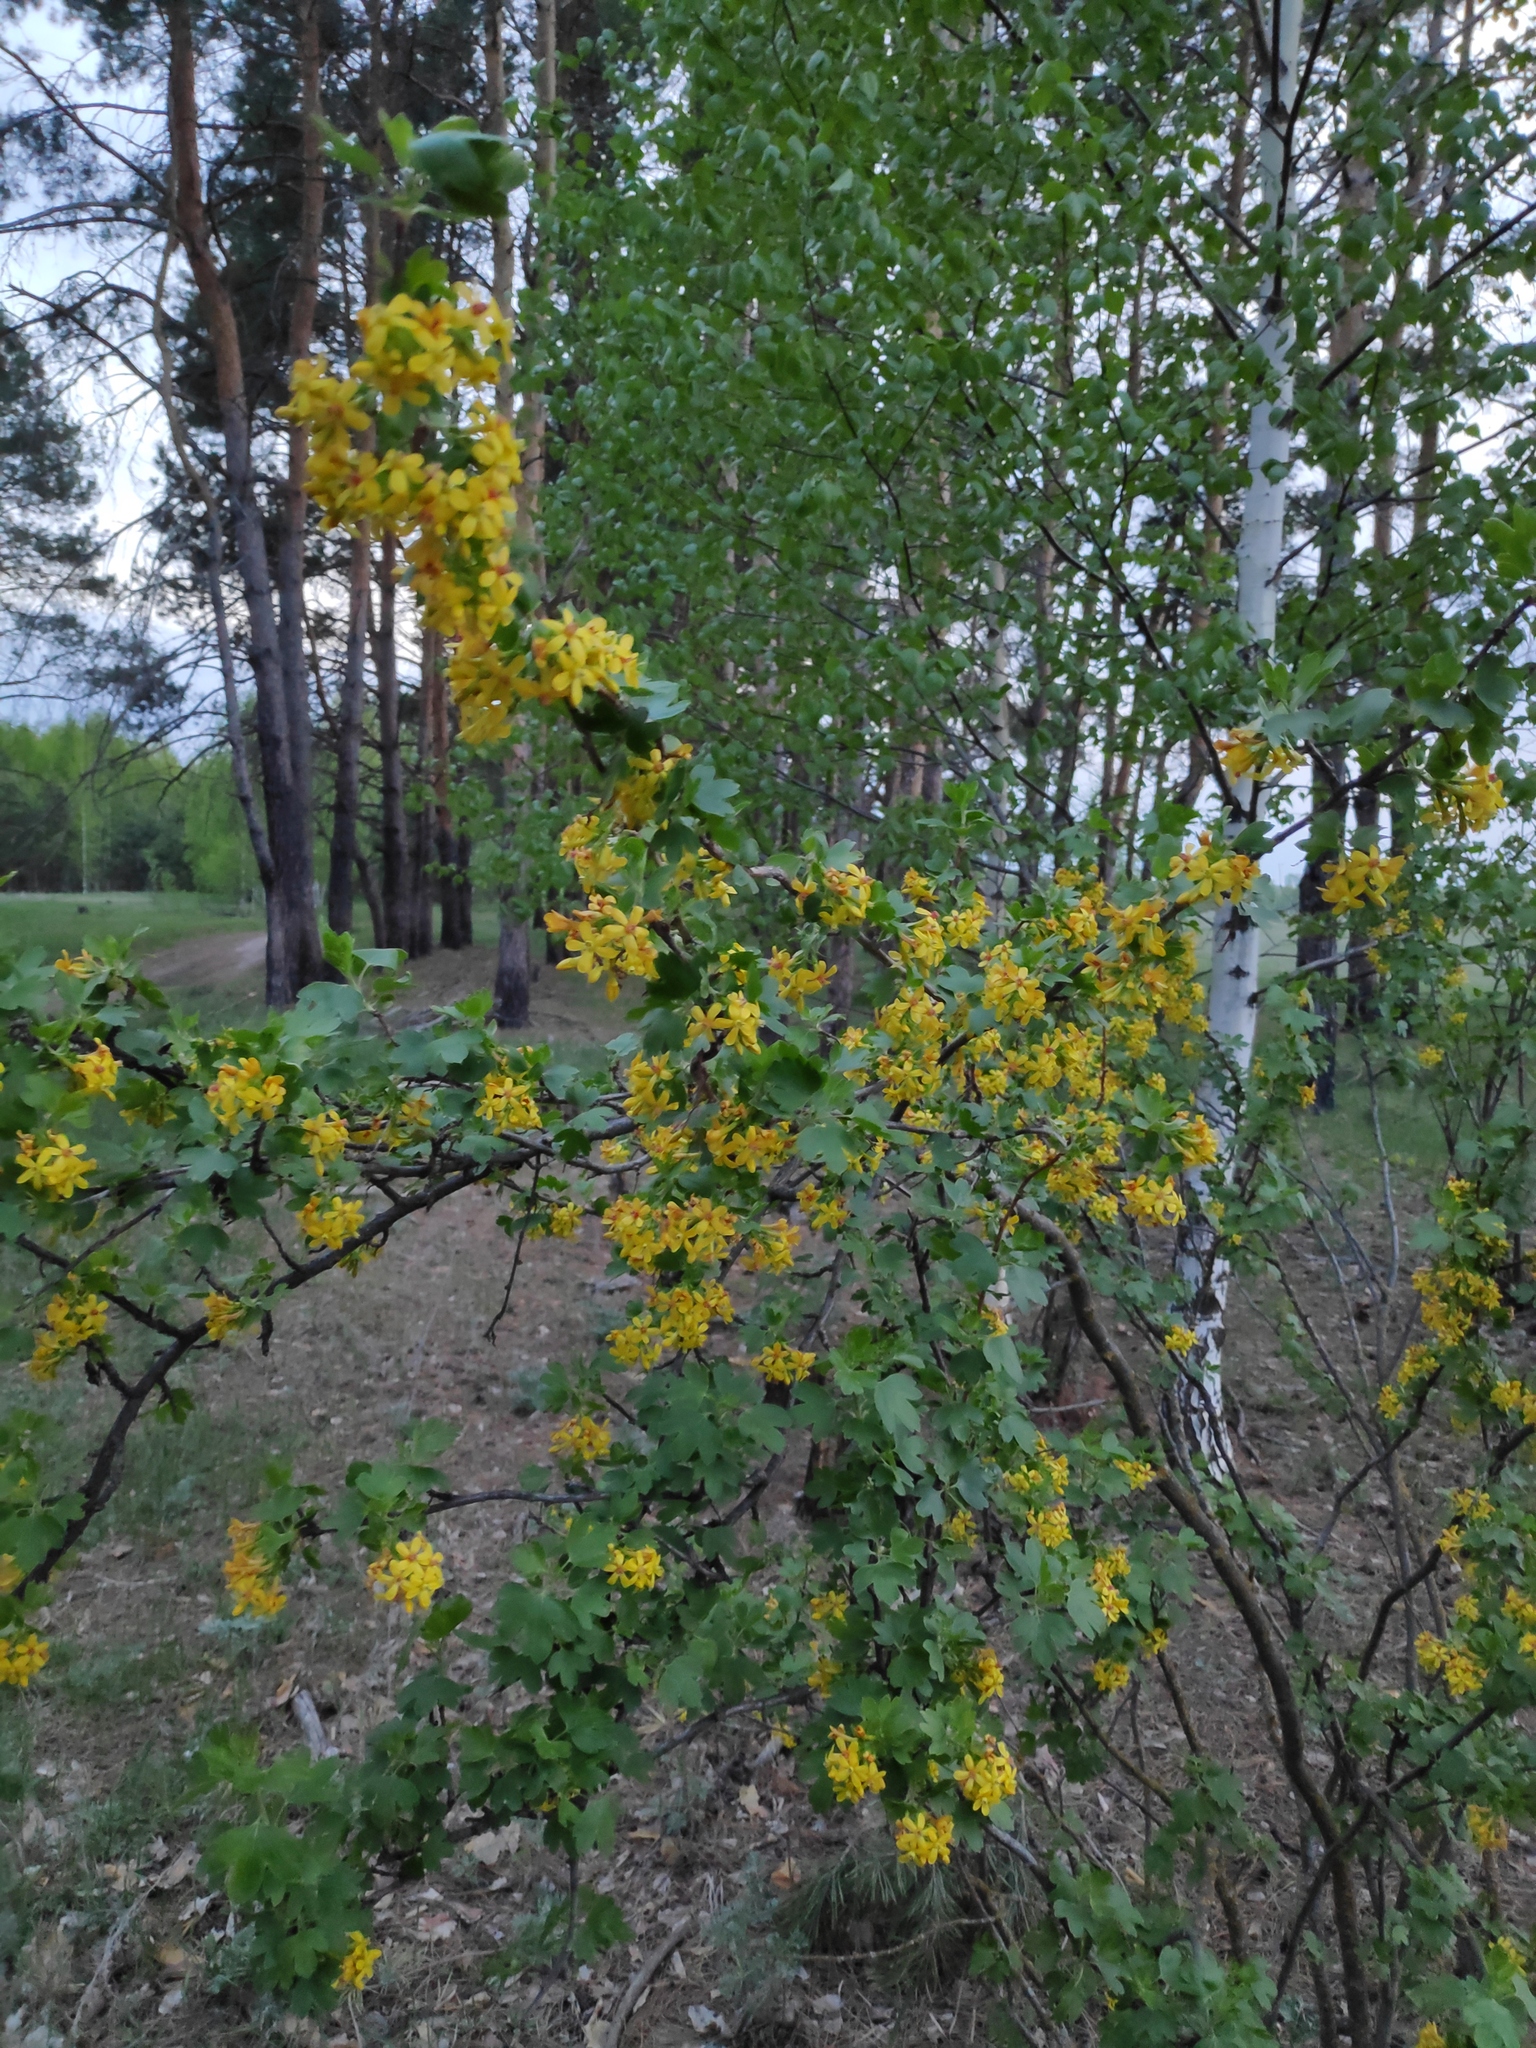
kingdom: Plantae
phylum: Tracheophyta
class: Magnoliopsida
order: Saxifragales
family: Grossulariaceae
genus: Ribes
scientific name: Ribes aureum
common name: Golden currant
